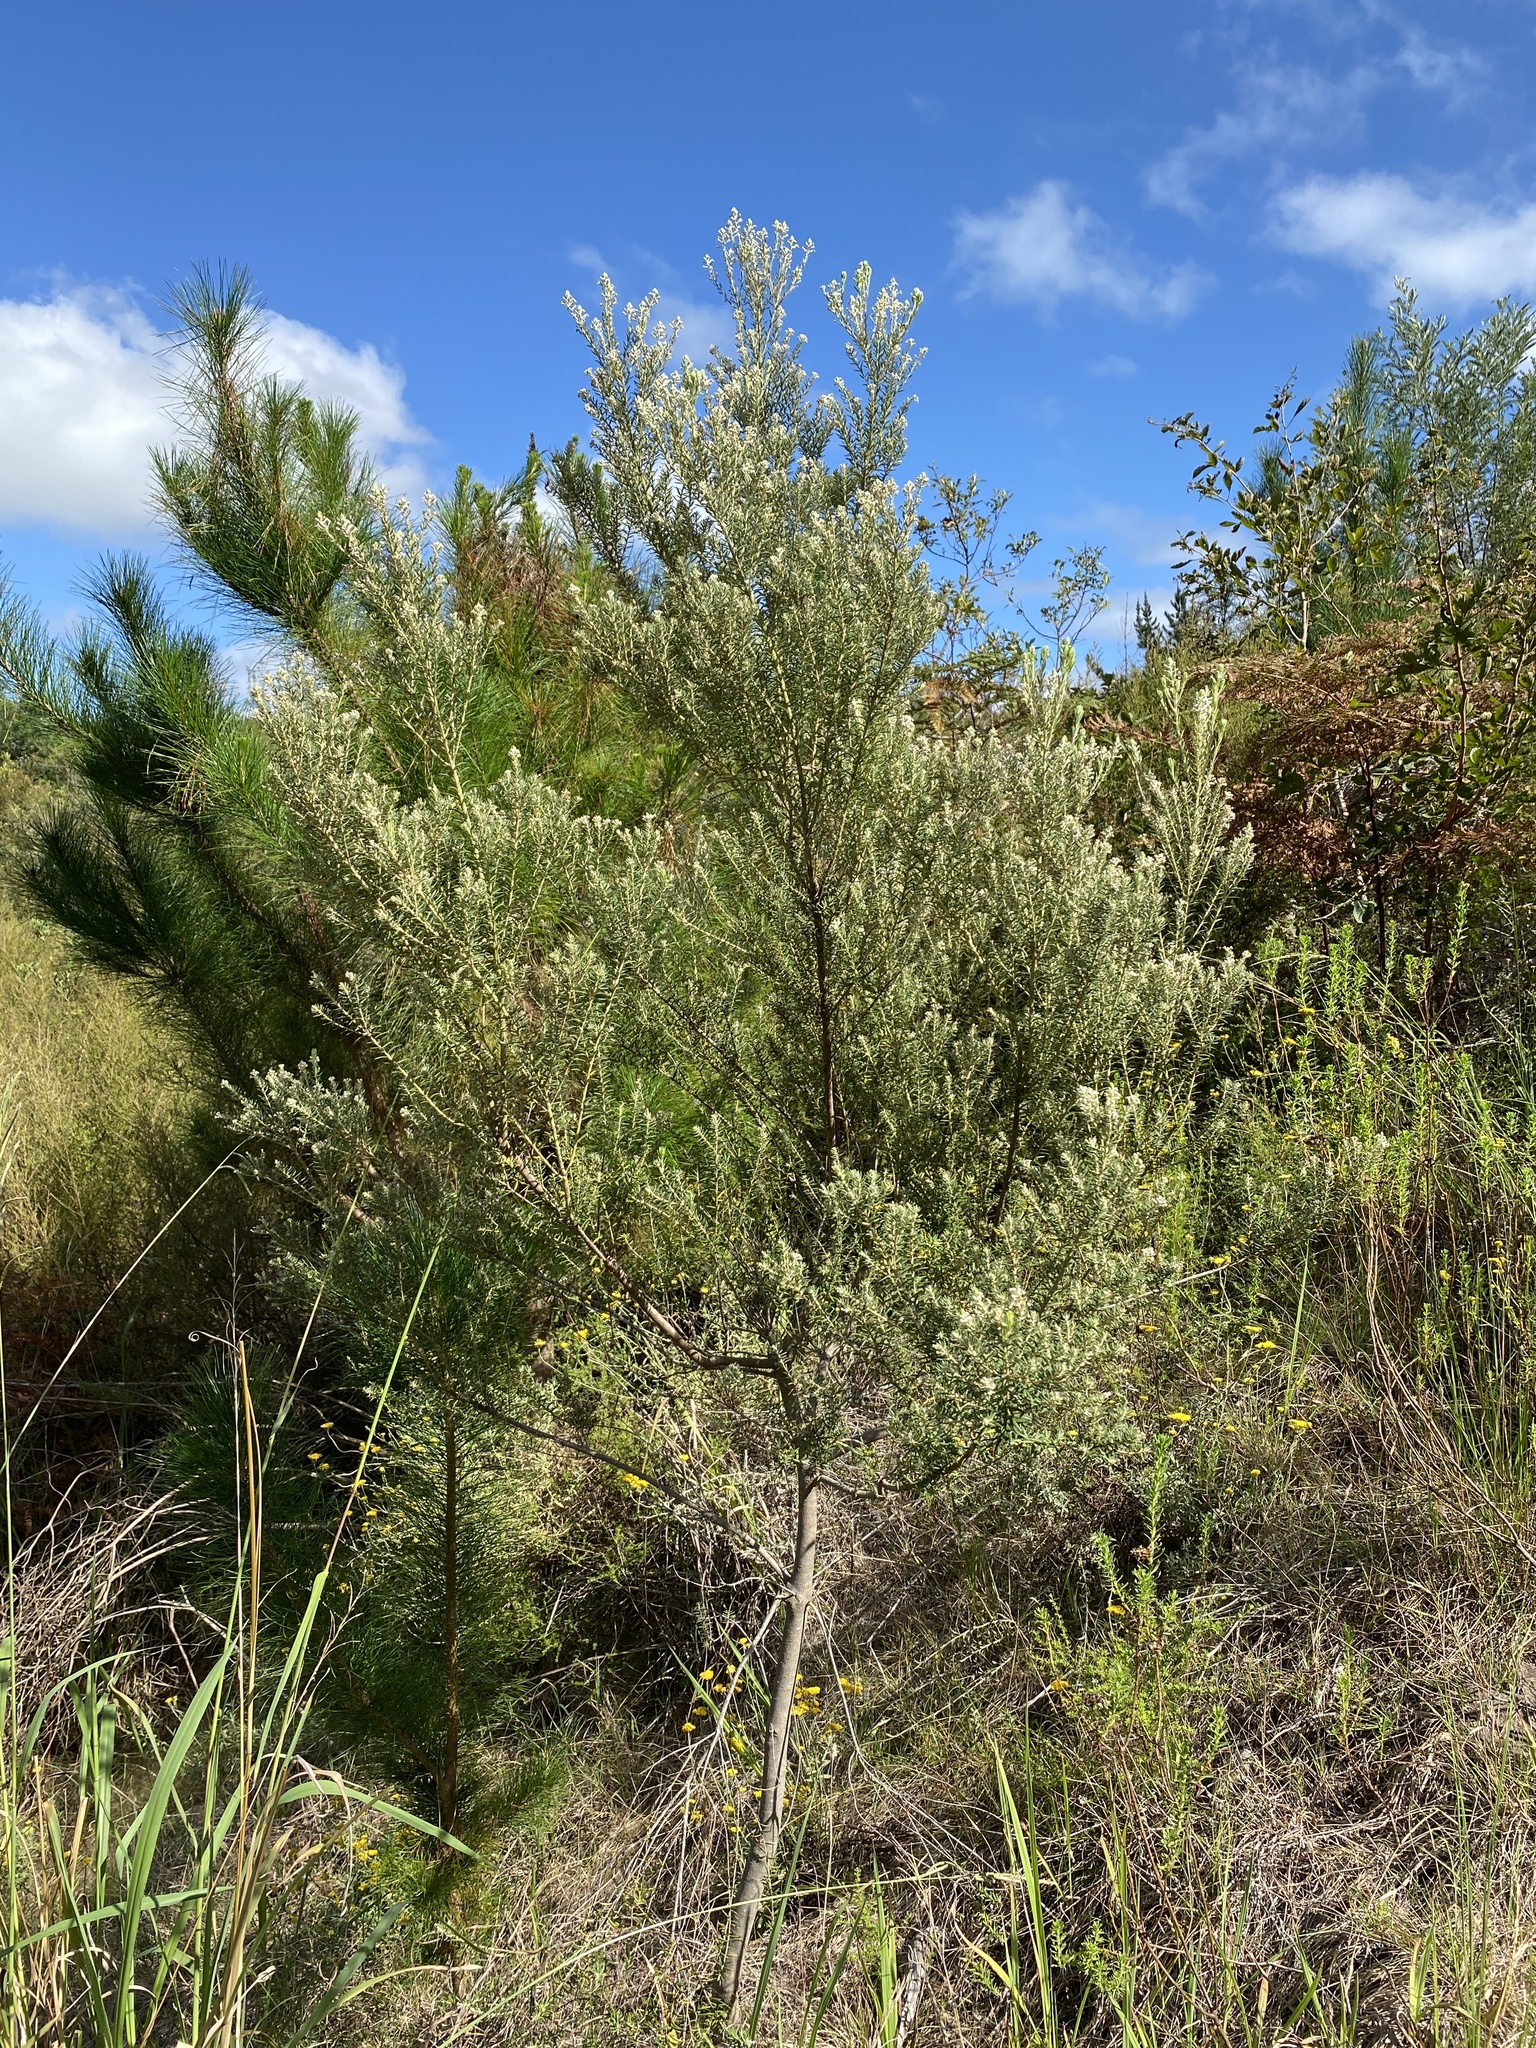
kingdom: Plantae
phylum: Tracheophyta
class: Magnoliopsida
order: Rosales
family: Rhamnaceae
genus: Phylica
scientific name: Phylica pinea
